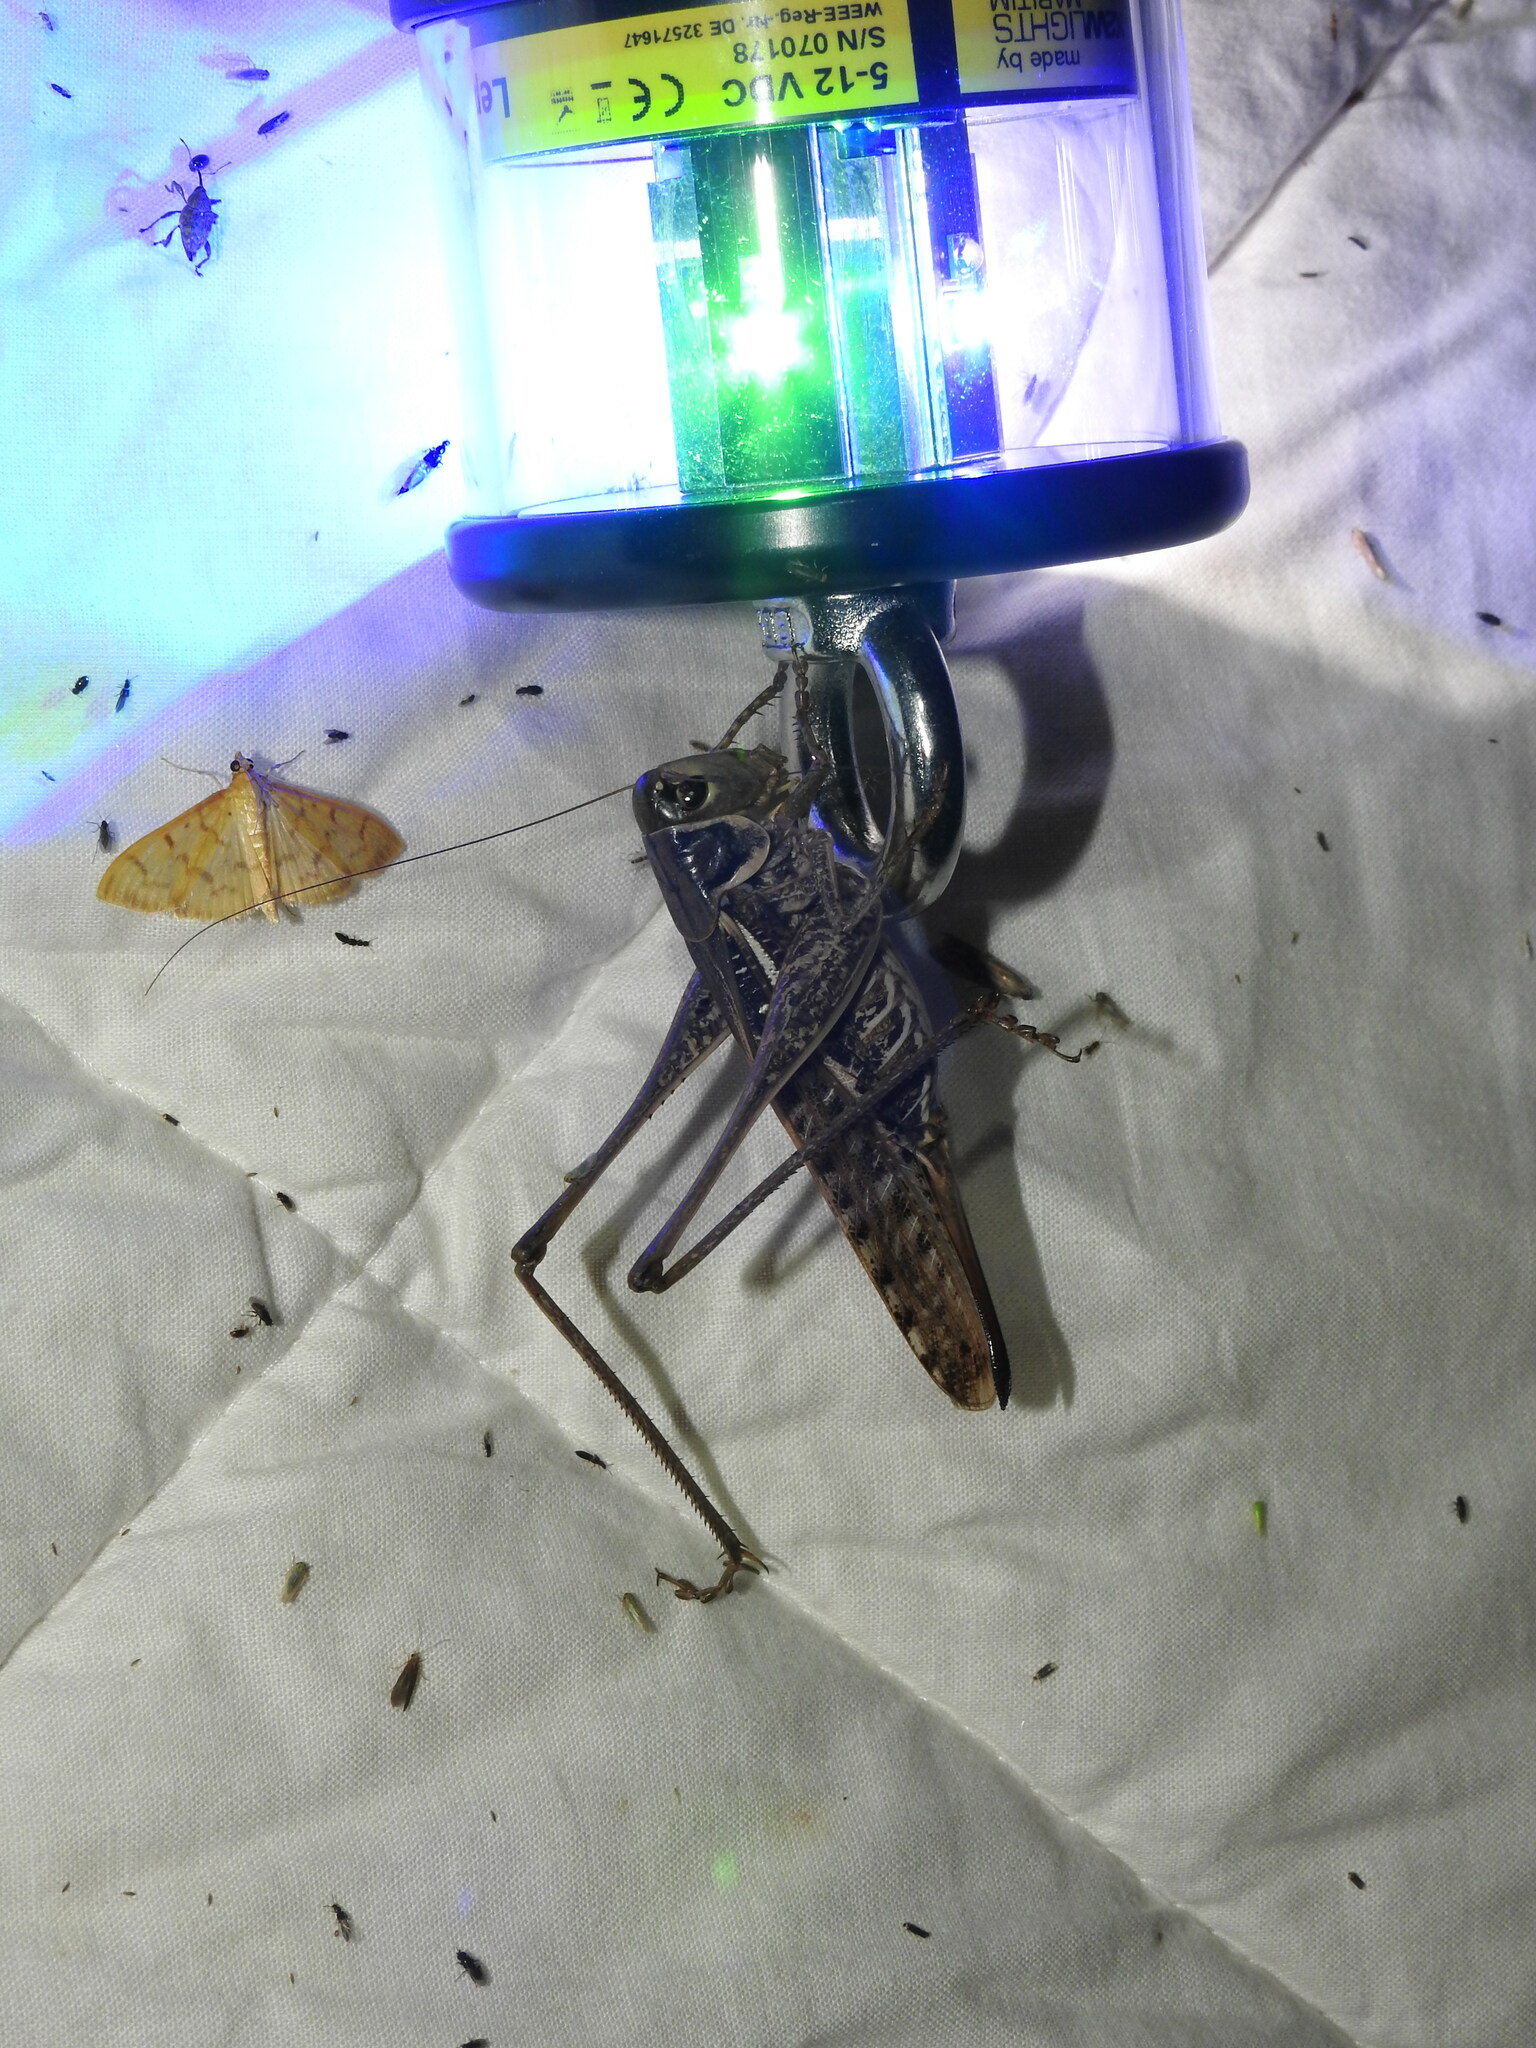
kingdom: Animalia
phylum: Arthropoda
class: Insecta
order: Orthoptera
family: Tettigoniidae
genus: Decticus
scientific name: Decticus albifrons
